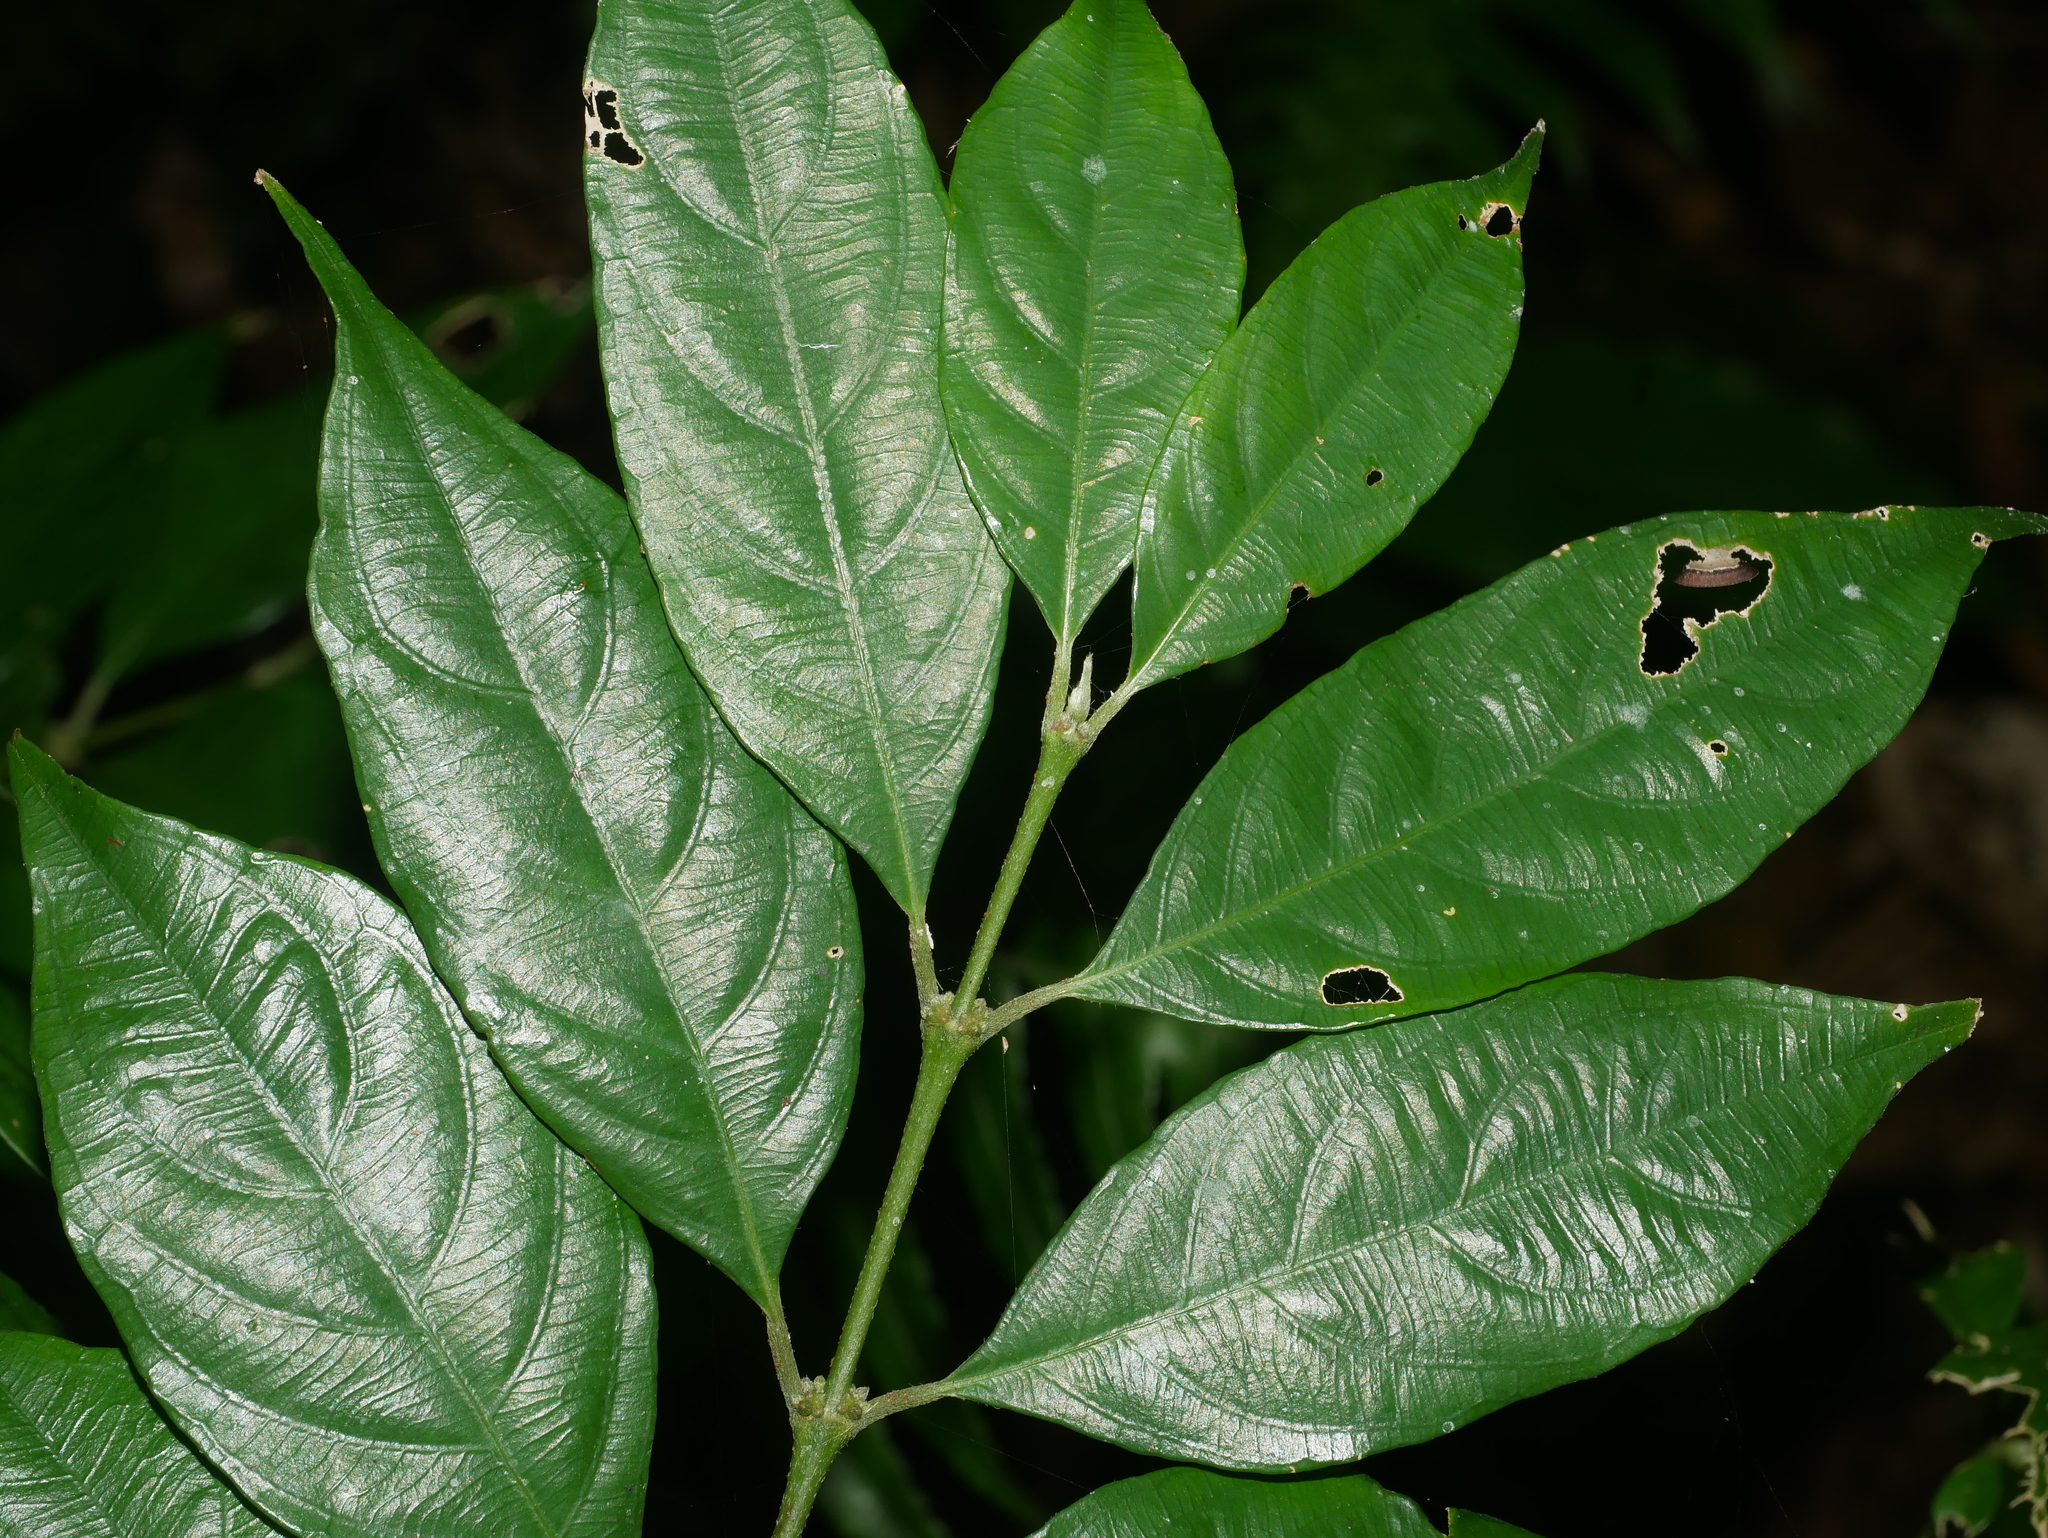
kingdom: Plantae
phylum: Tracheophyta
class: Magnoliopsida
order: Gentianales
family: Rubiaceae
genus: Lasianthus
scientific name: Lasianthus fordii
